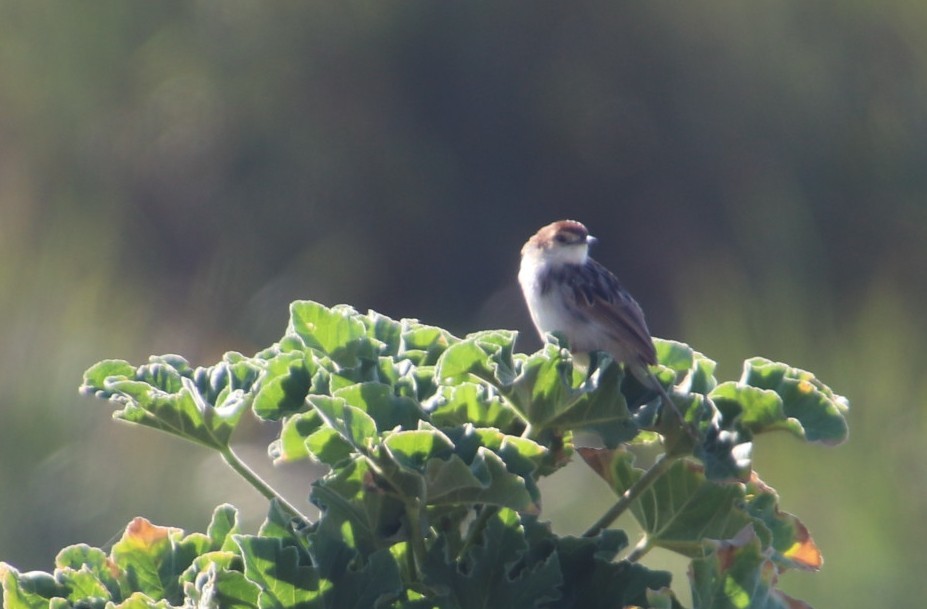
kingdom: Animalia
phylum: Chordata
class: Aves
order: Passeriformes
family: Cisticolidae
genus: Cisticola
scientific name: Cisticola tinniens
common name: Levaillant's cisticola
